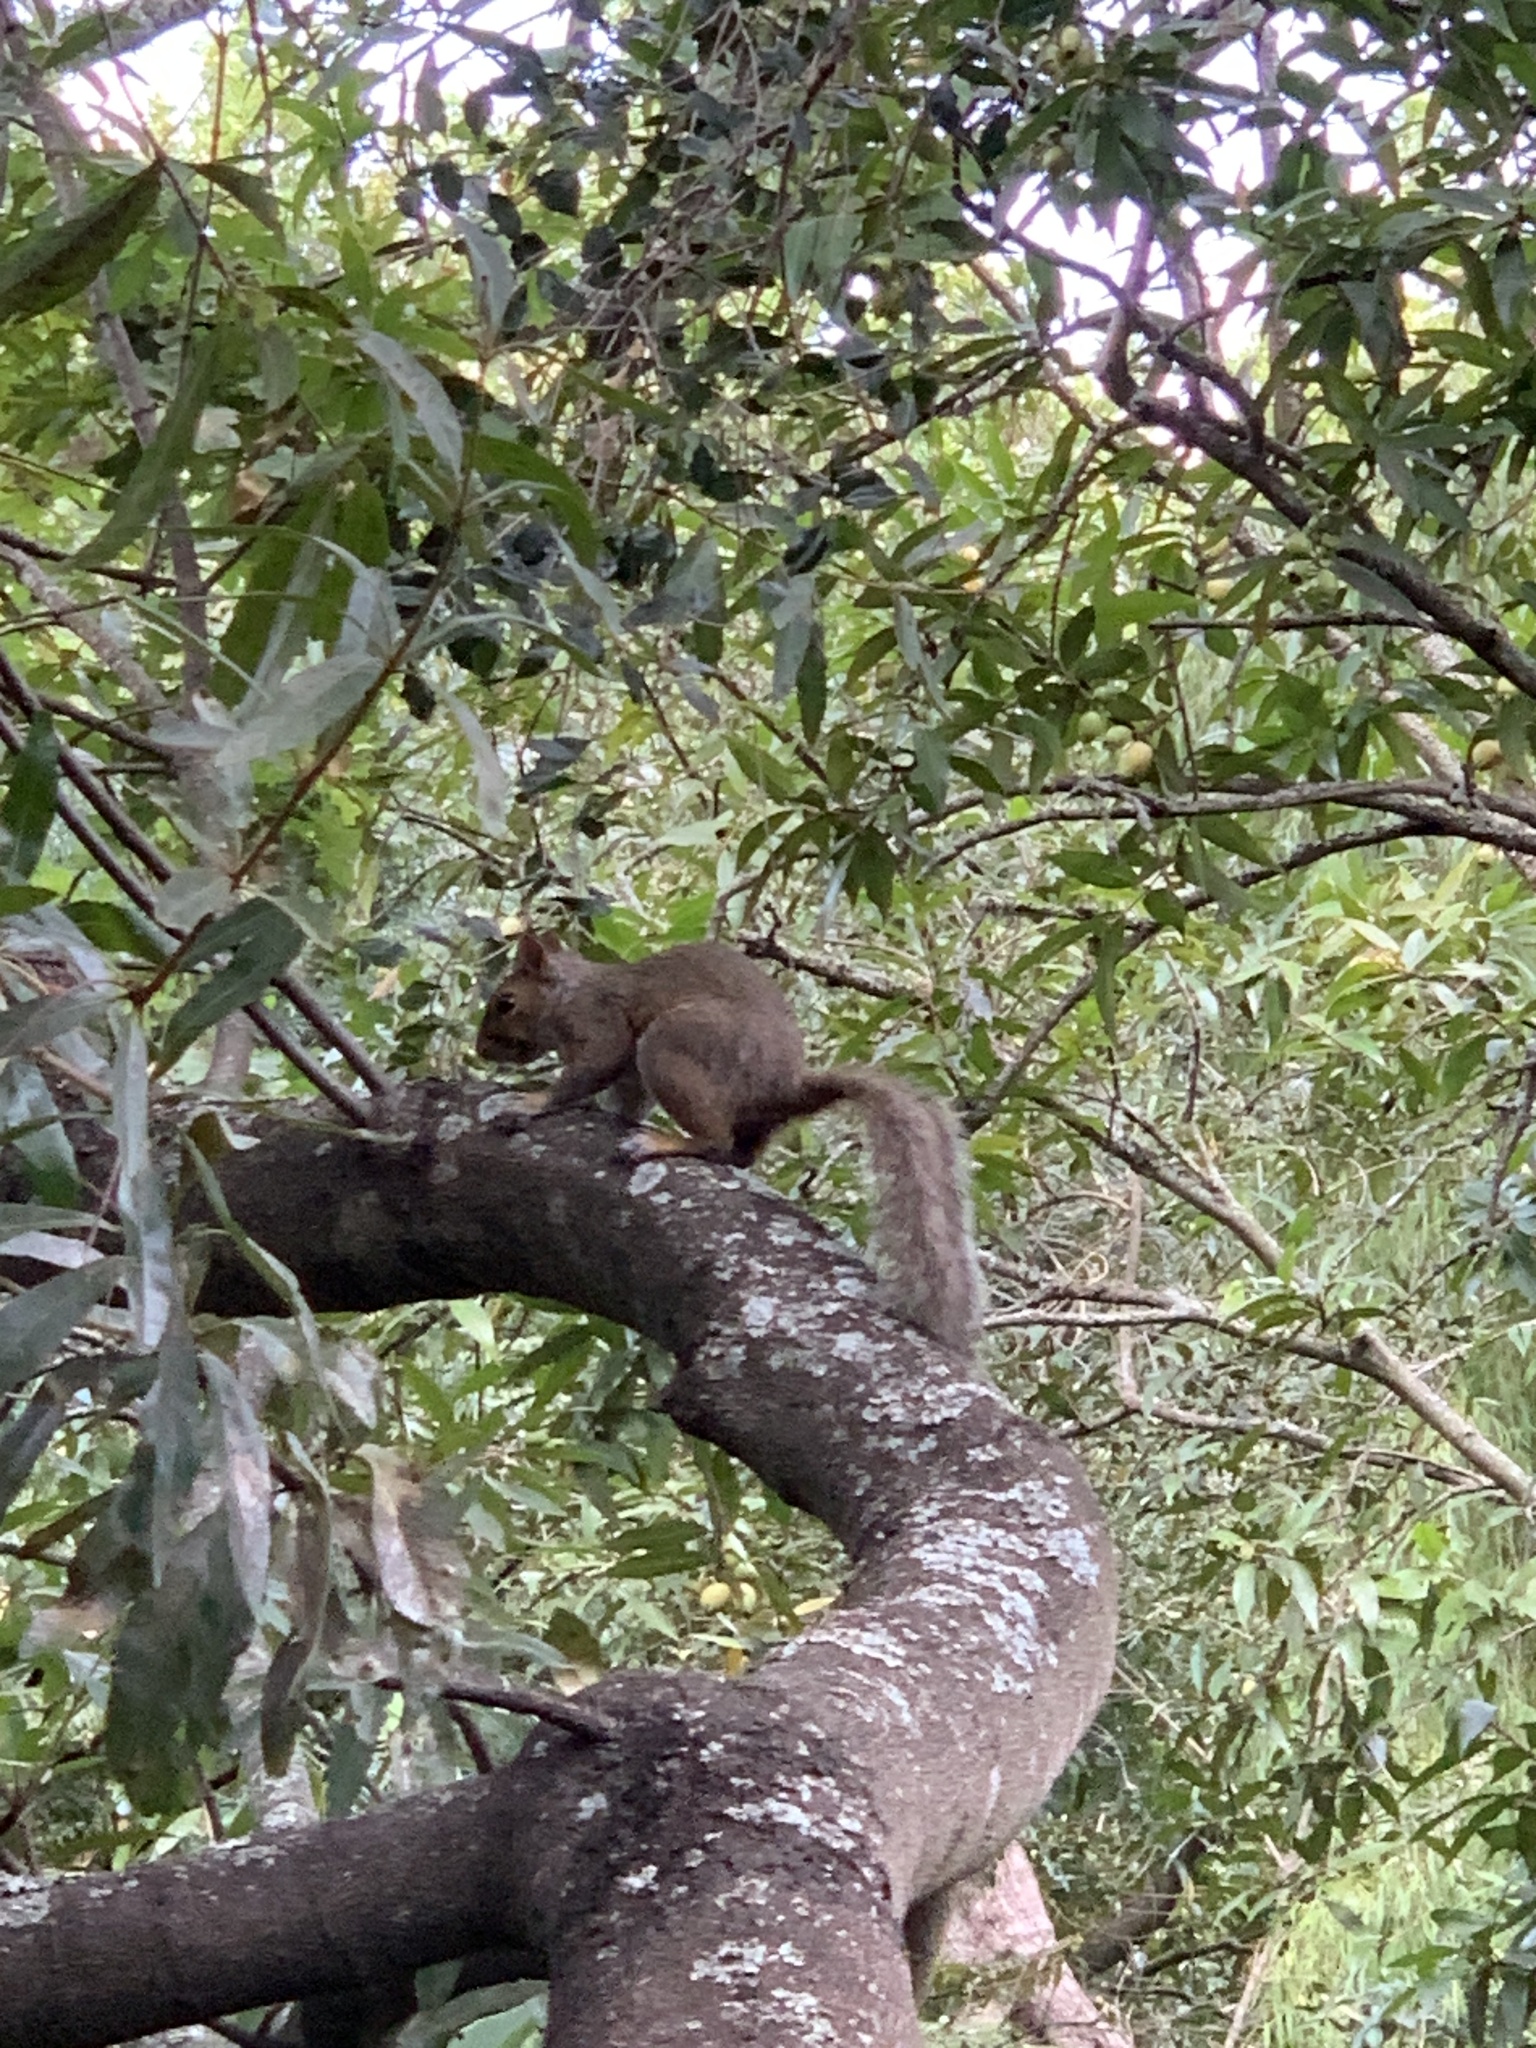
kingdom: Animalia
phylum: Chordata
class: Mammalia
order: Rodentia
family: Sciuridae
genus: Sciurus
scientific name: Sciurus carolinensis
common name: Eastern gray squirrel
